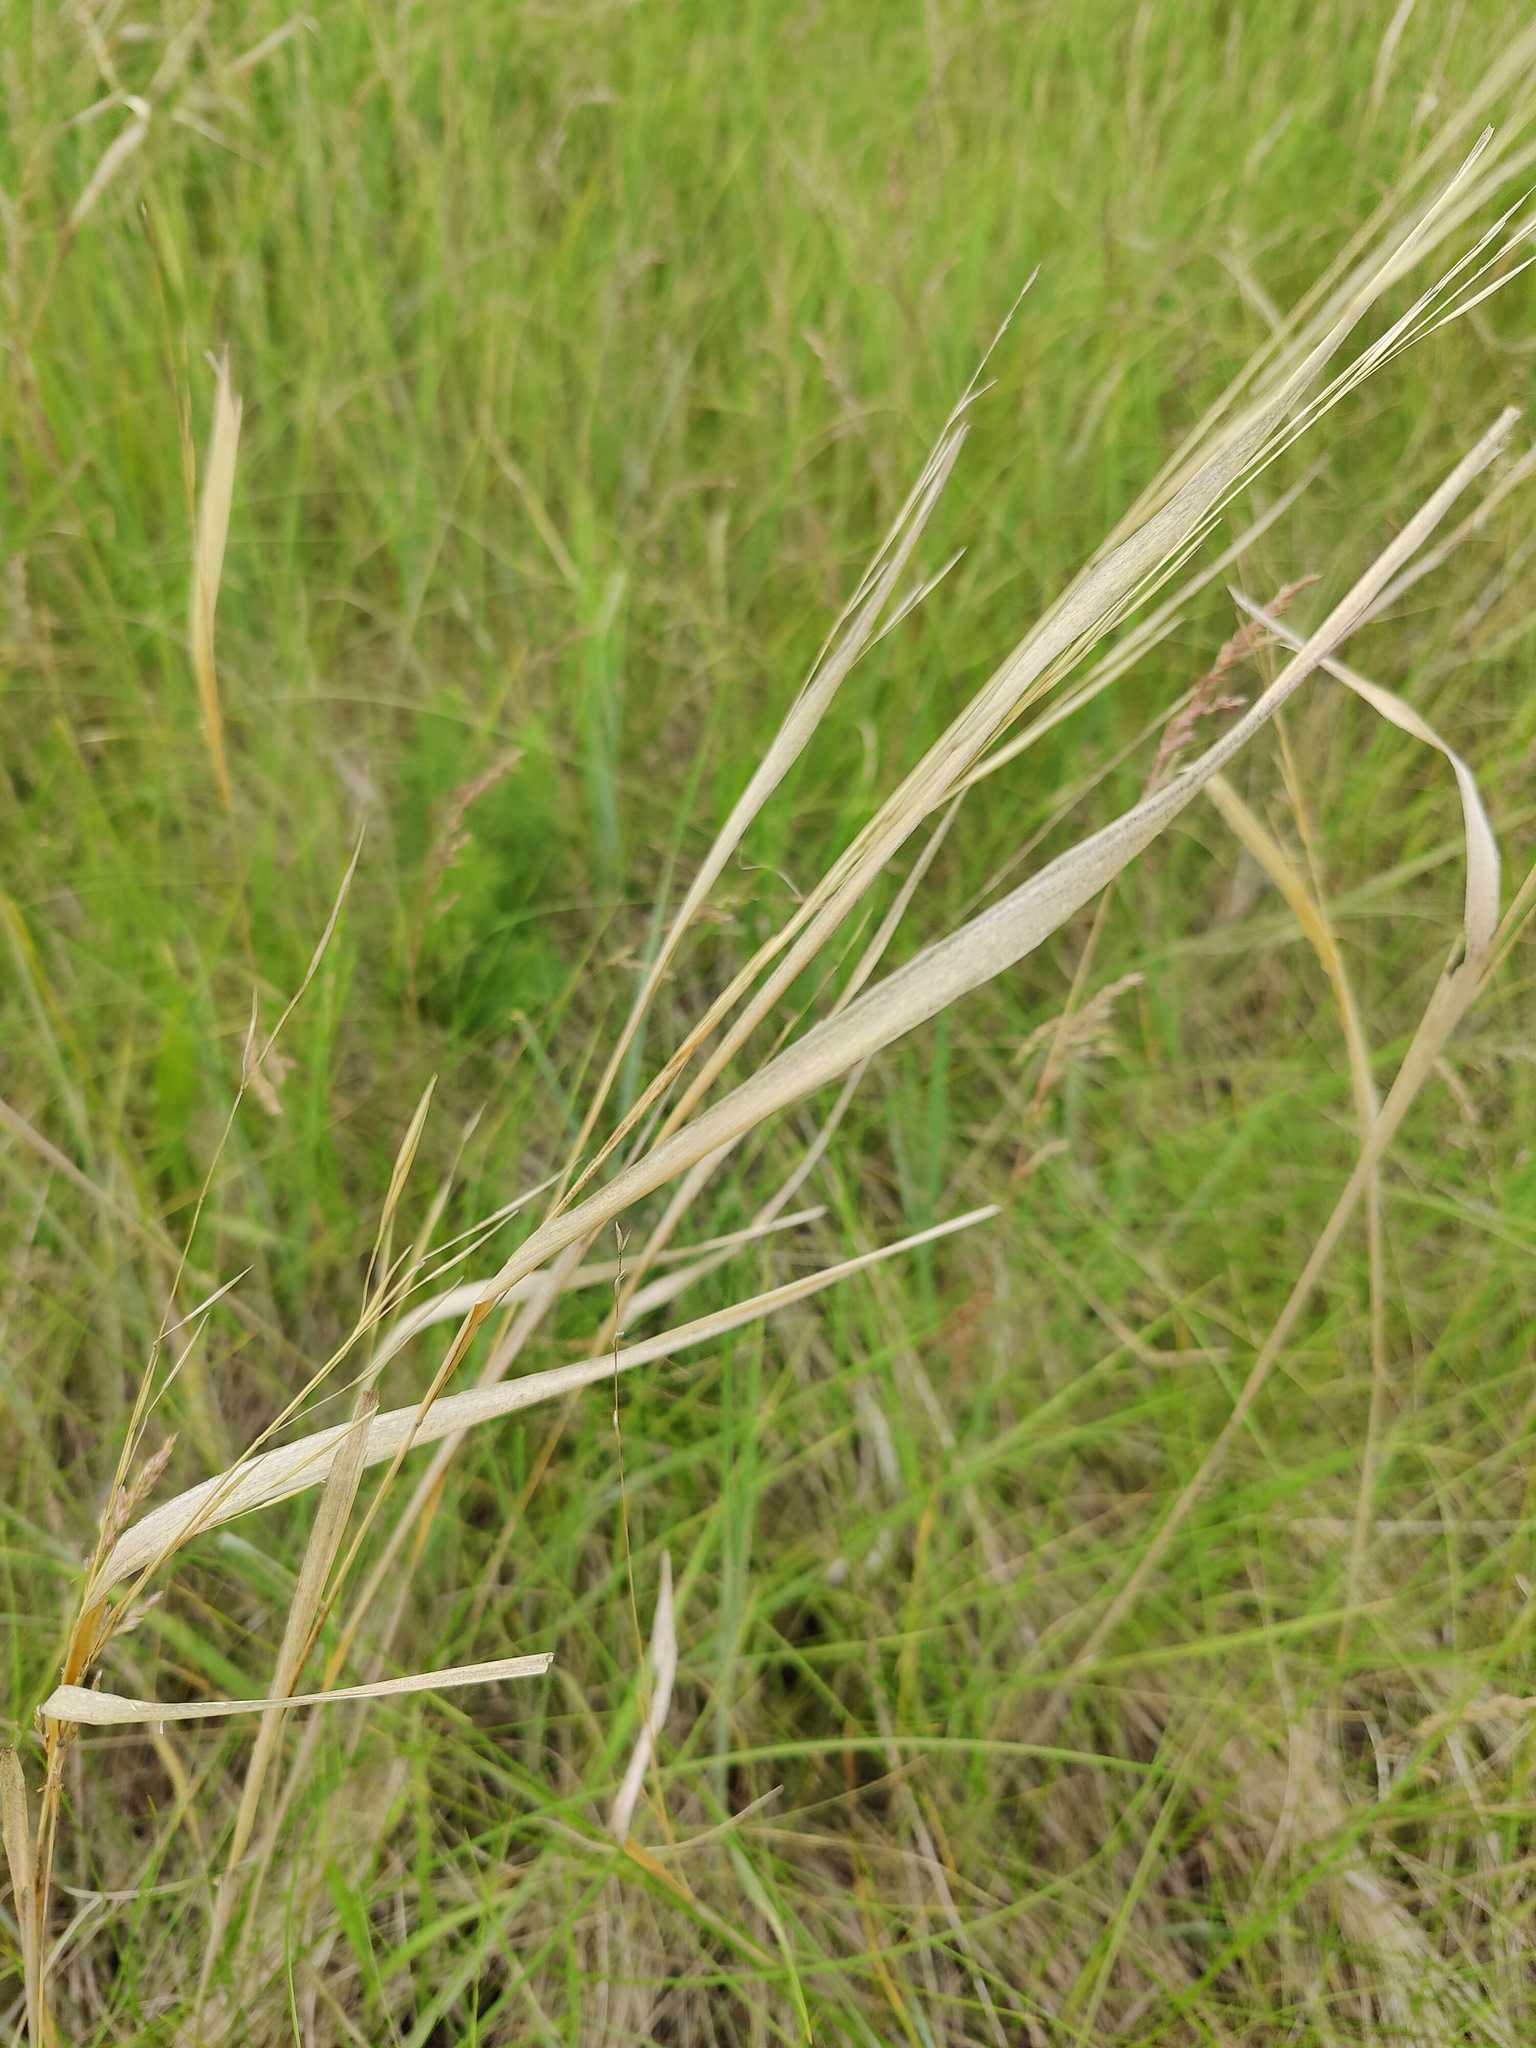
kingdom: Plantae
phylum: Tracheophyta
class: Liliopsida
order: Poales
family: Poaceae
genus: Stipa
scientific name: Stipa capillata
